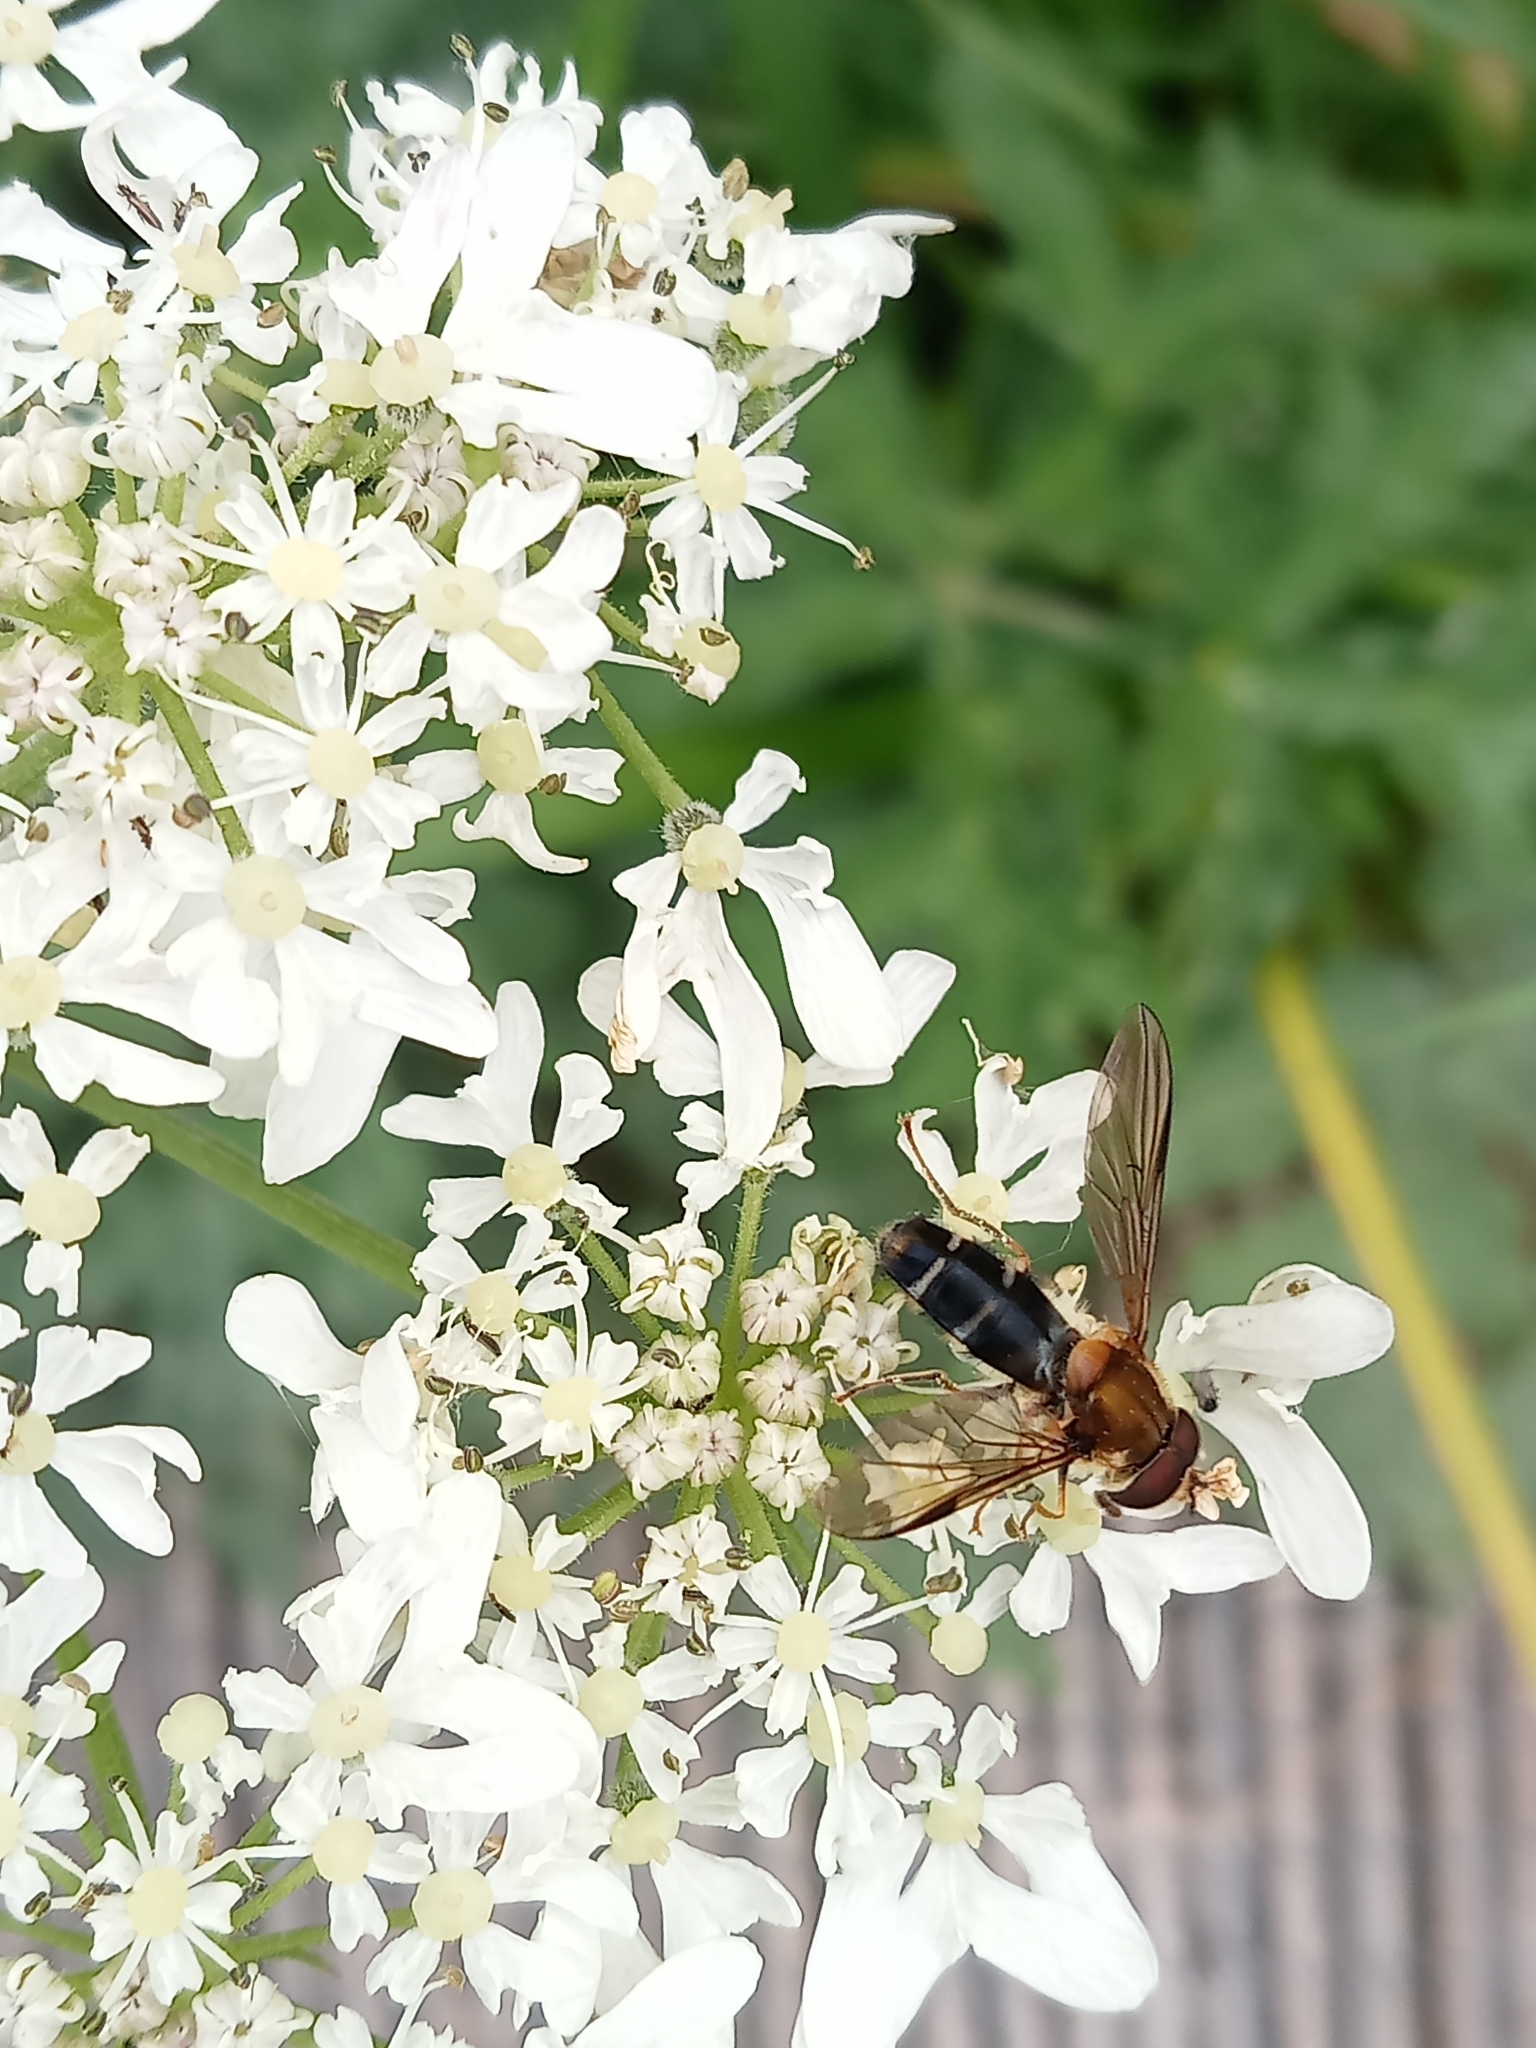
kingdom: Animalia
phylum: Arthropoda
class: Insecta
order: Diptera
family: Syrphidae
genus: Leucozona
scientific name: Leucozona glaucia
